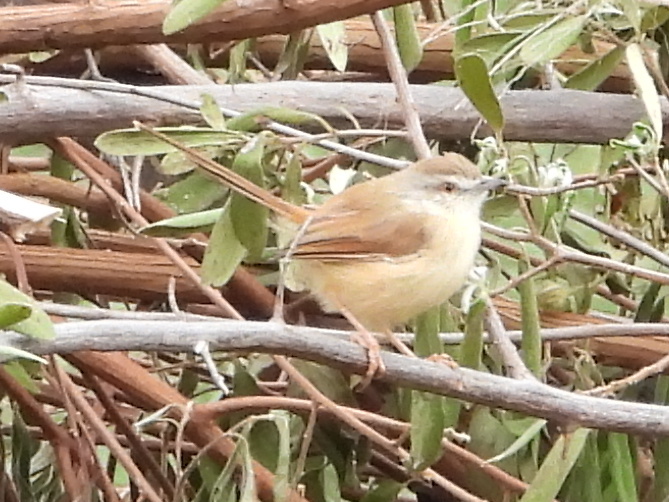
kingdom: Animalia
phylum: Chordata
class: Aves
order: Passeriformes
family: Cisticolidae
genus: Prinia
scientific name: Prinia subflava
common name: Tawny-flanked prinia
